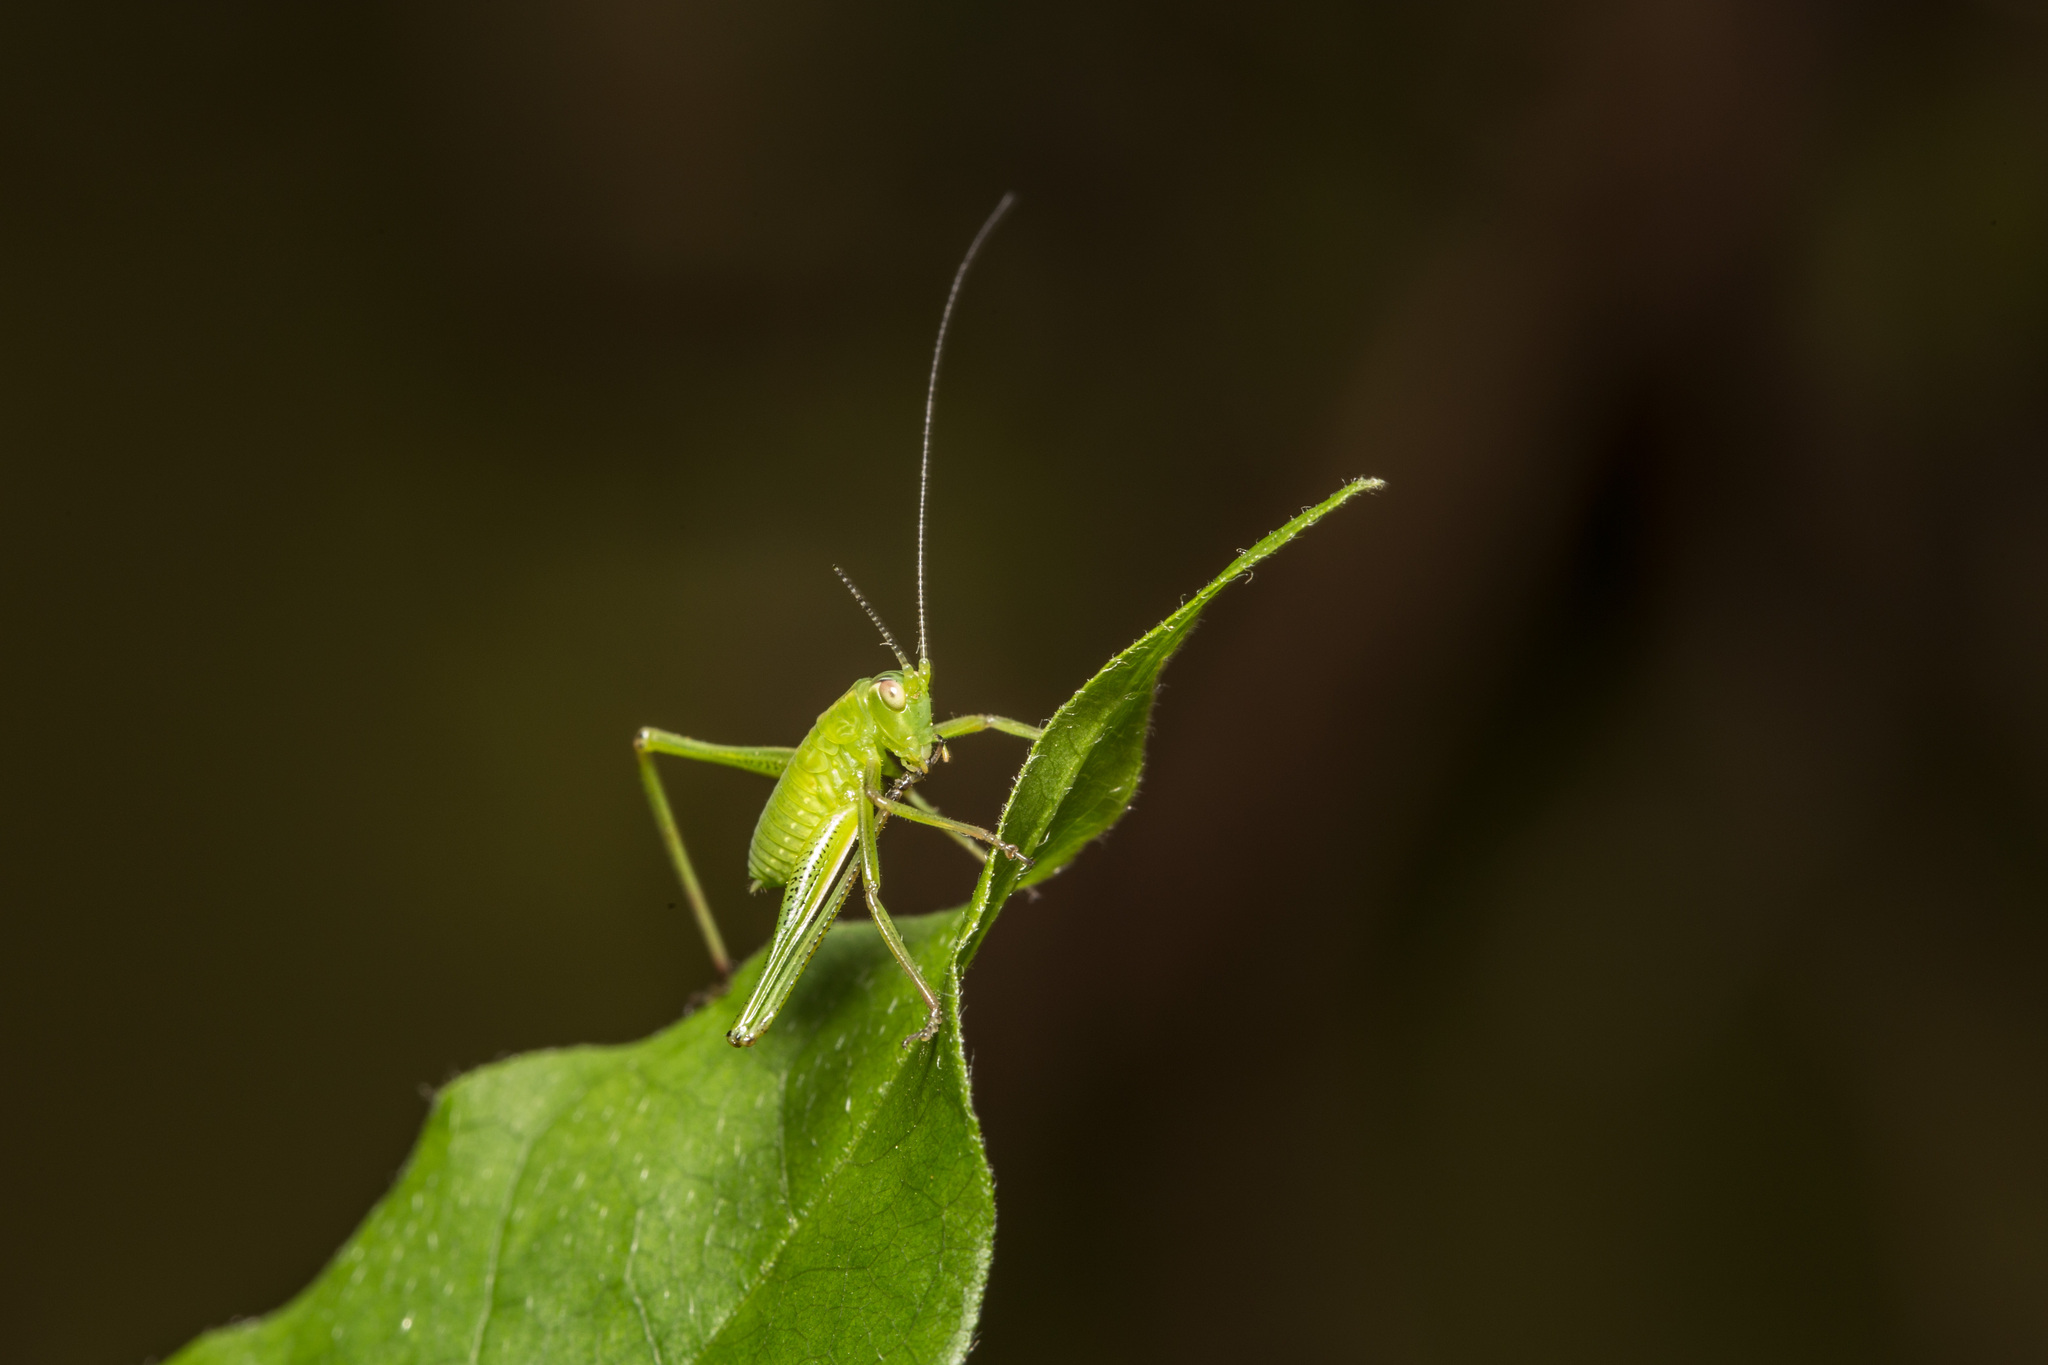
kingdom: Animalia
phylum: Arthropoda
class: Insecta
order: Orthoptera
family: Tettigoniidae
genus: Caedicia
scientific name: Caedicia simplex
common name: Common garden katydid
